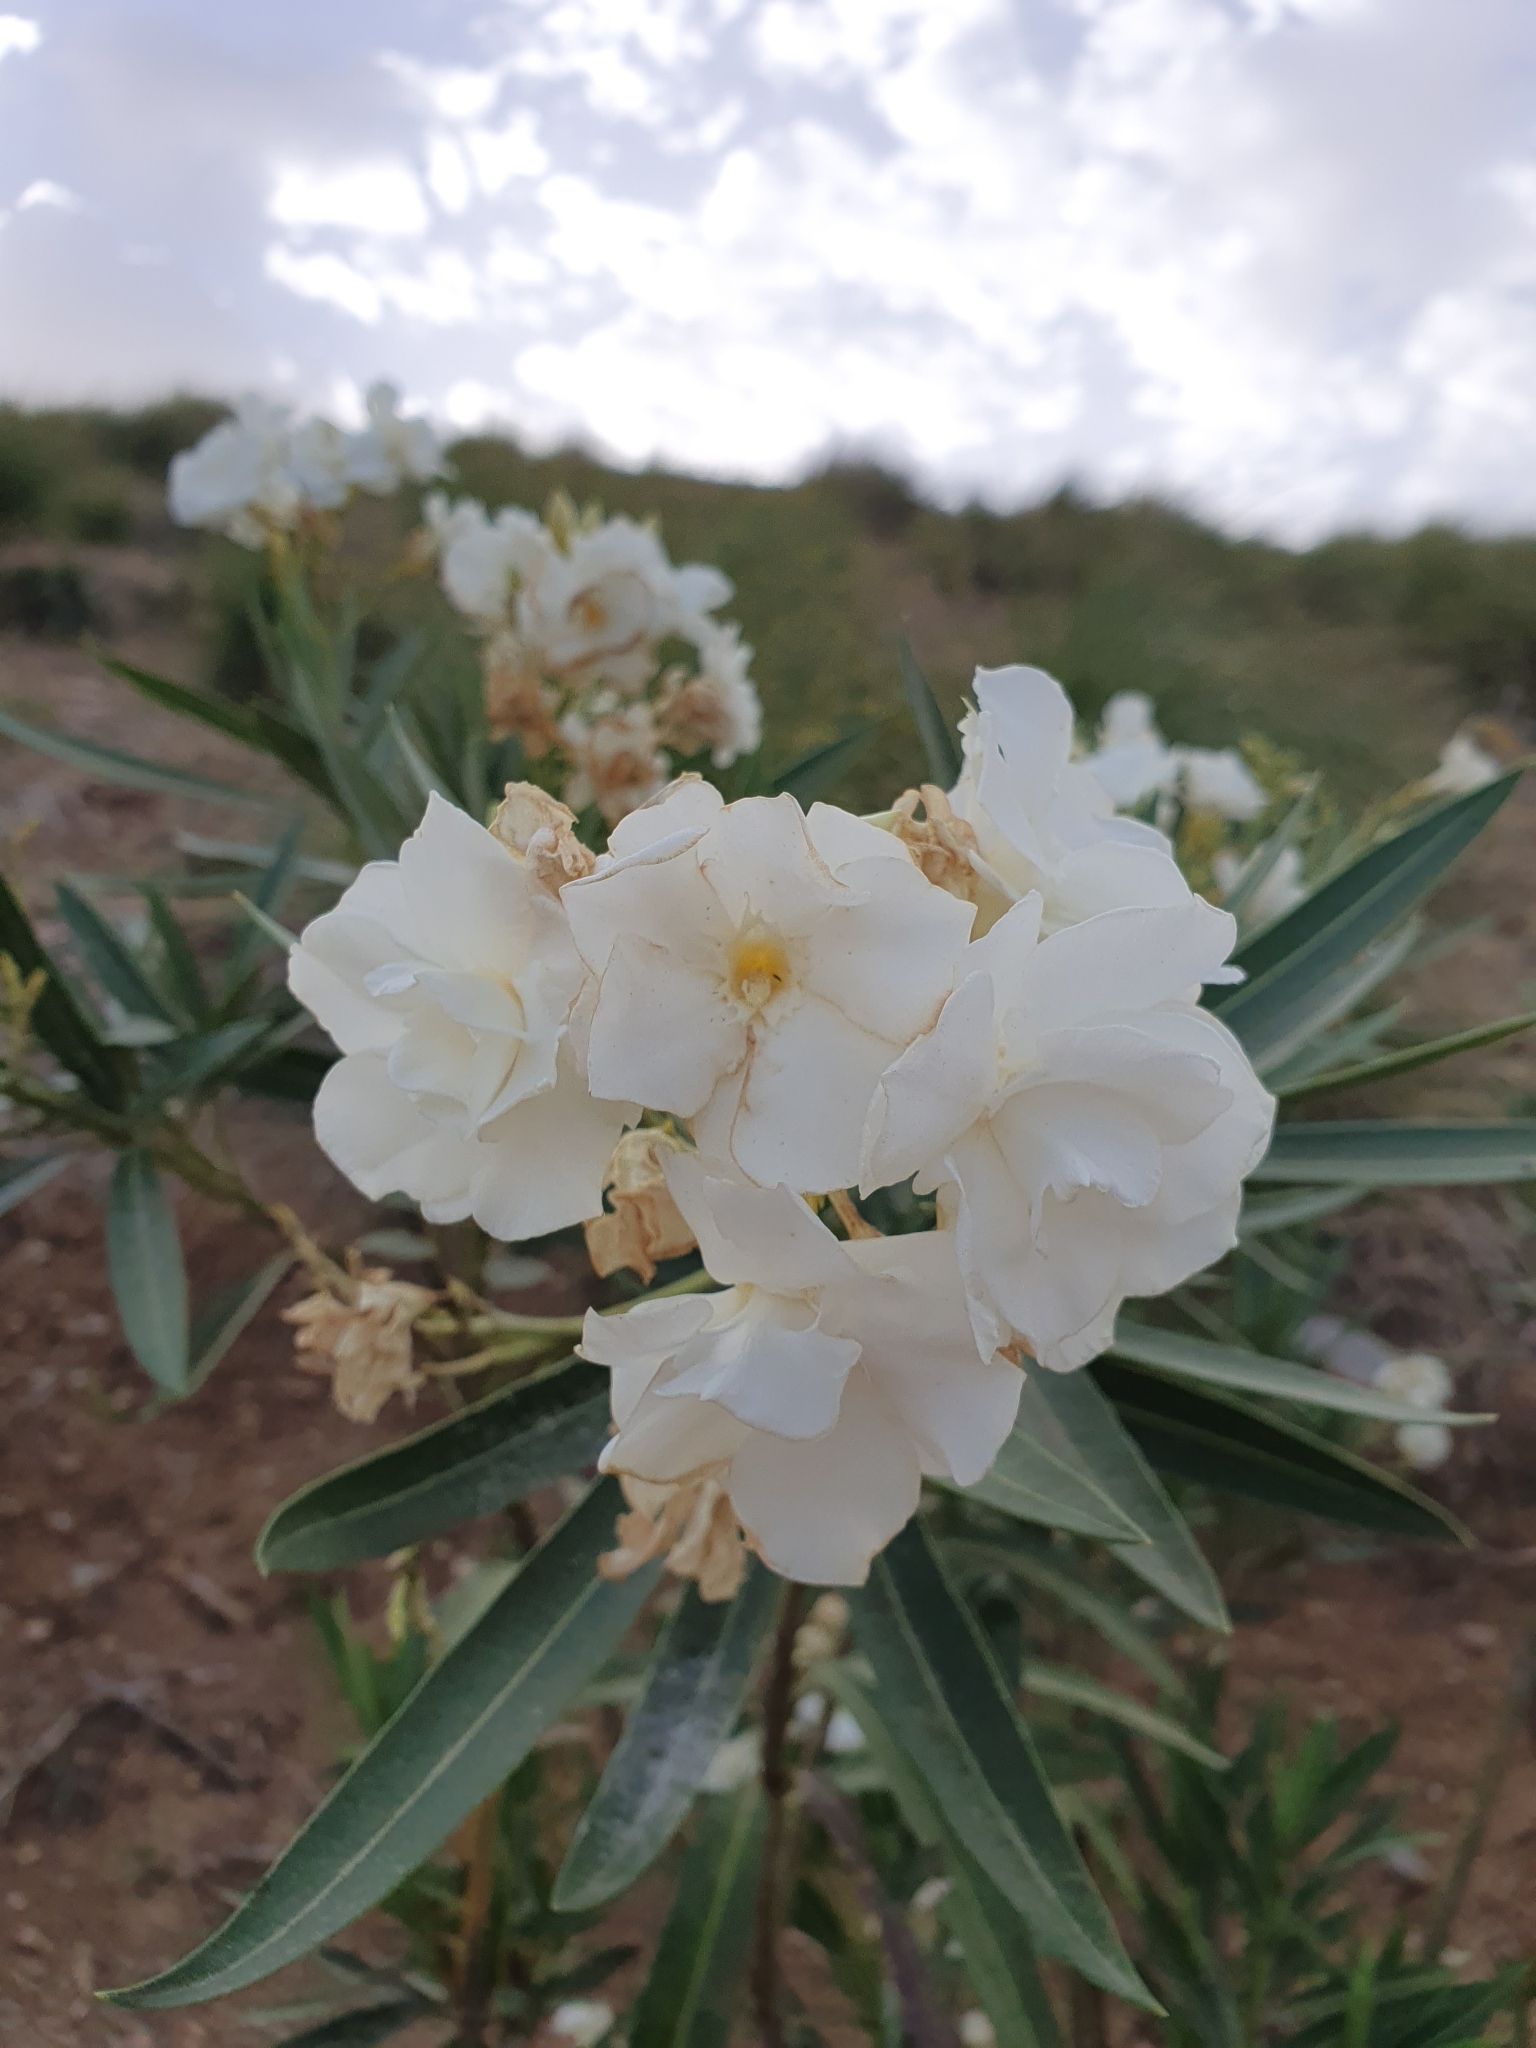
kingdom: Plantae
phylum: Tracheophyta
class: Magnoliopsida
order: Gentianales
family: Apocynaceae
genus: Nerium
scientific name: Nerium oleander
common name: Oleander
